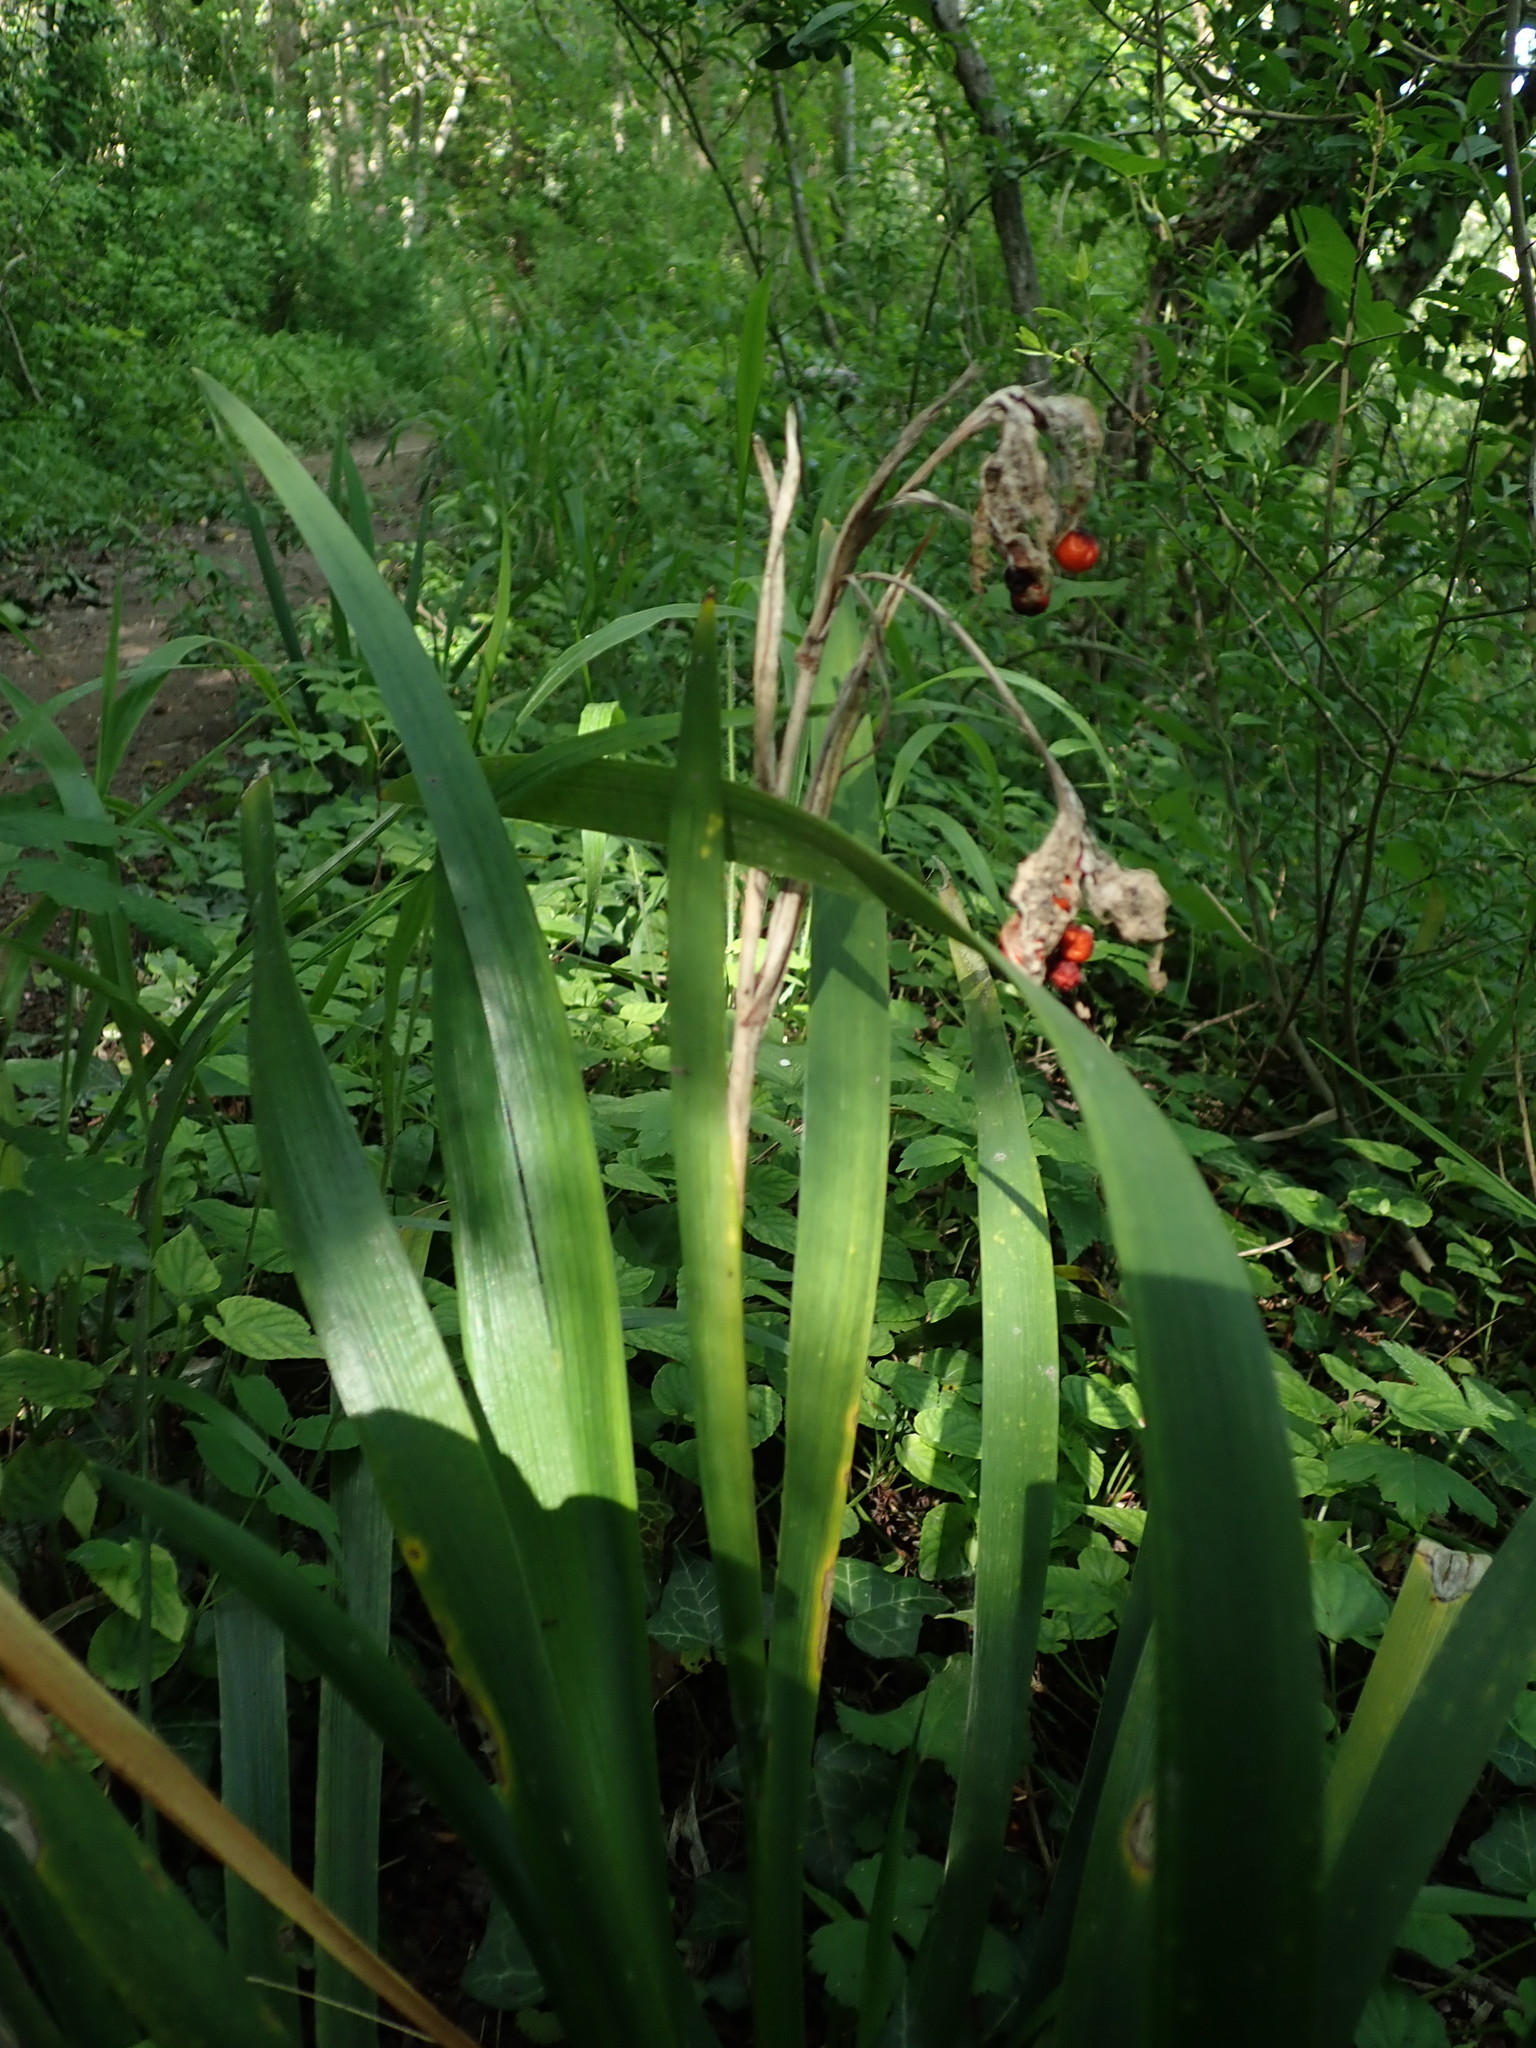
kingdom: Plantae
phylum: Tracheophyta
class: Liliopsida
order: Asparagales
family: Iridaceae
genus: Iris
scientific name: Iris foetidissima
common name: Stinking iris
